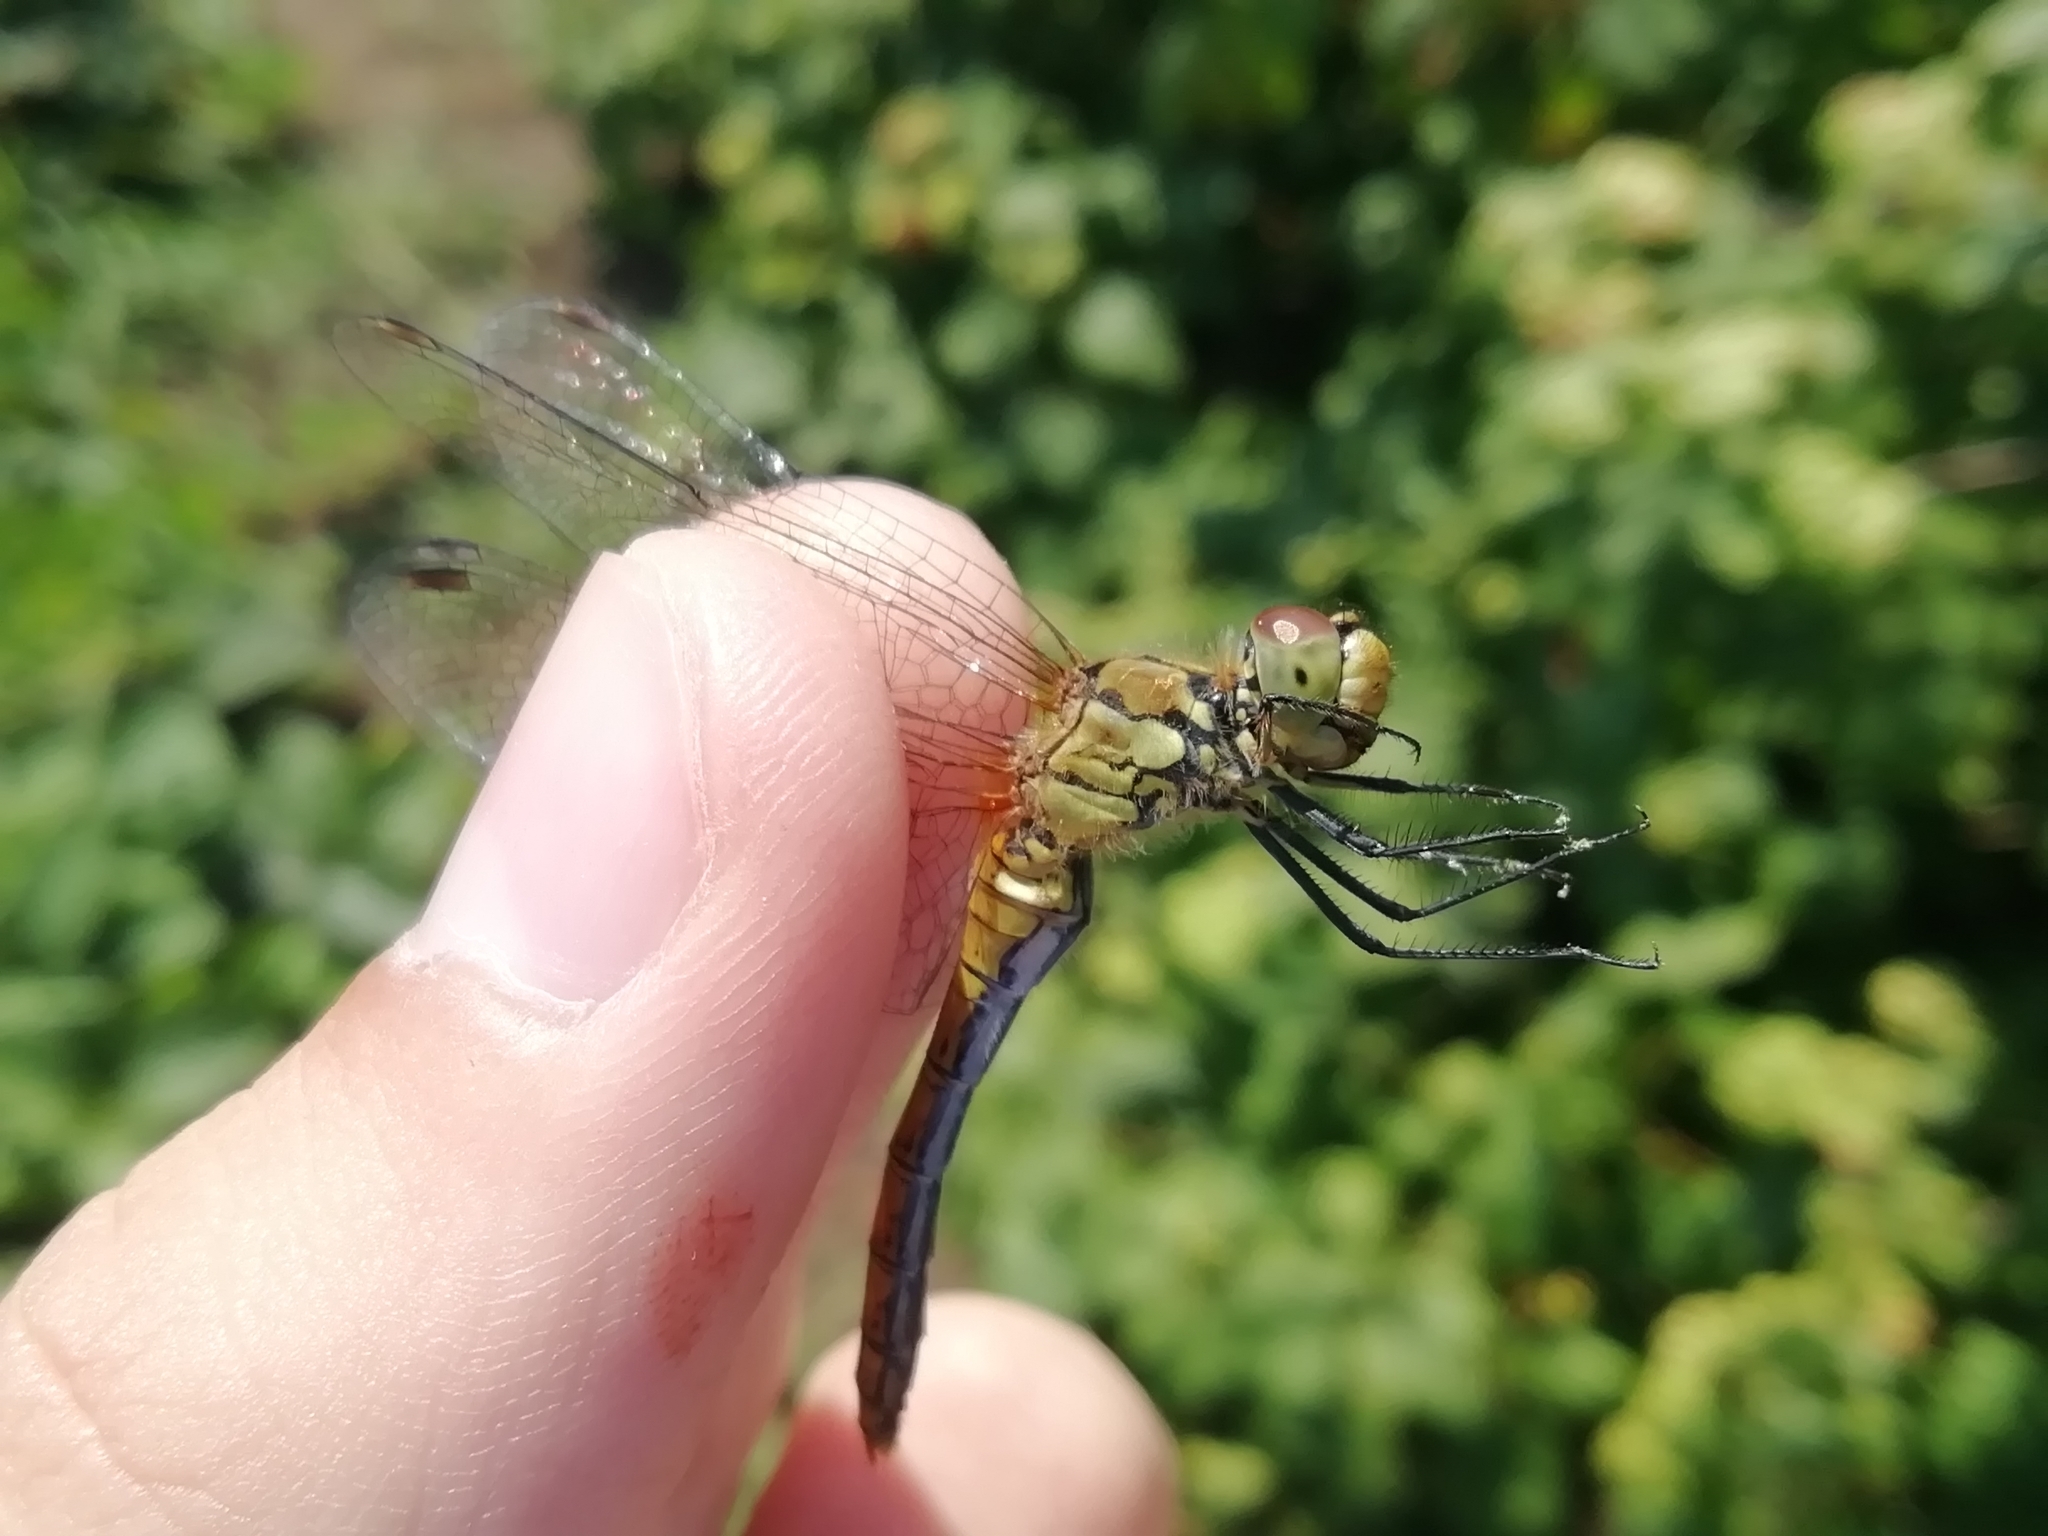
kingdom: Animalia
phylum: Arthropoda
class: Insecta
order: Odonata
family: Libellulidae
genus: Sympetrum
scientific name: Sympetrum sanguineum
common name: Ruddy darter
